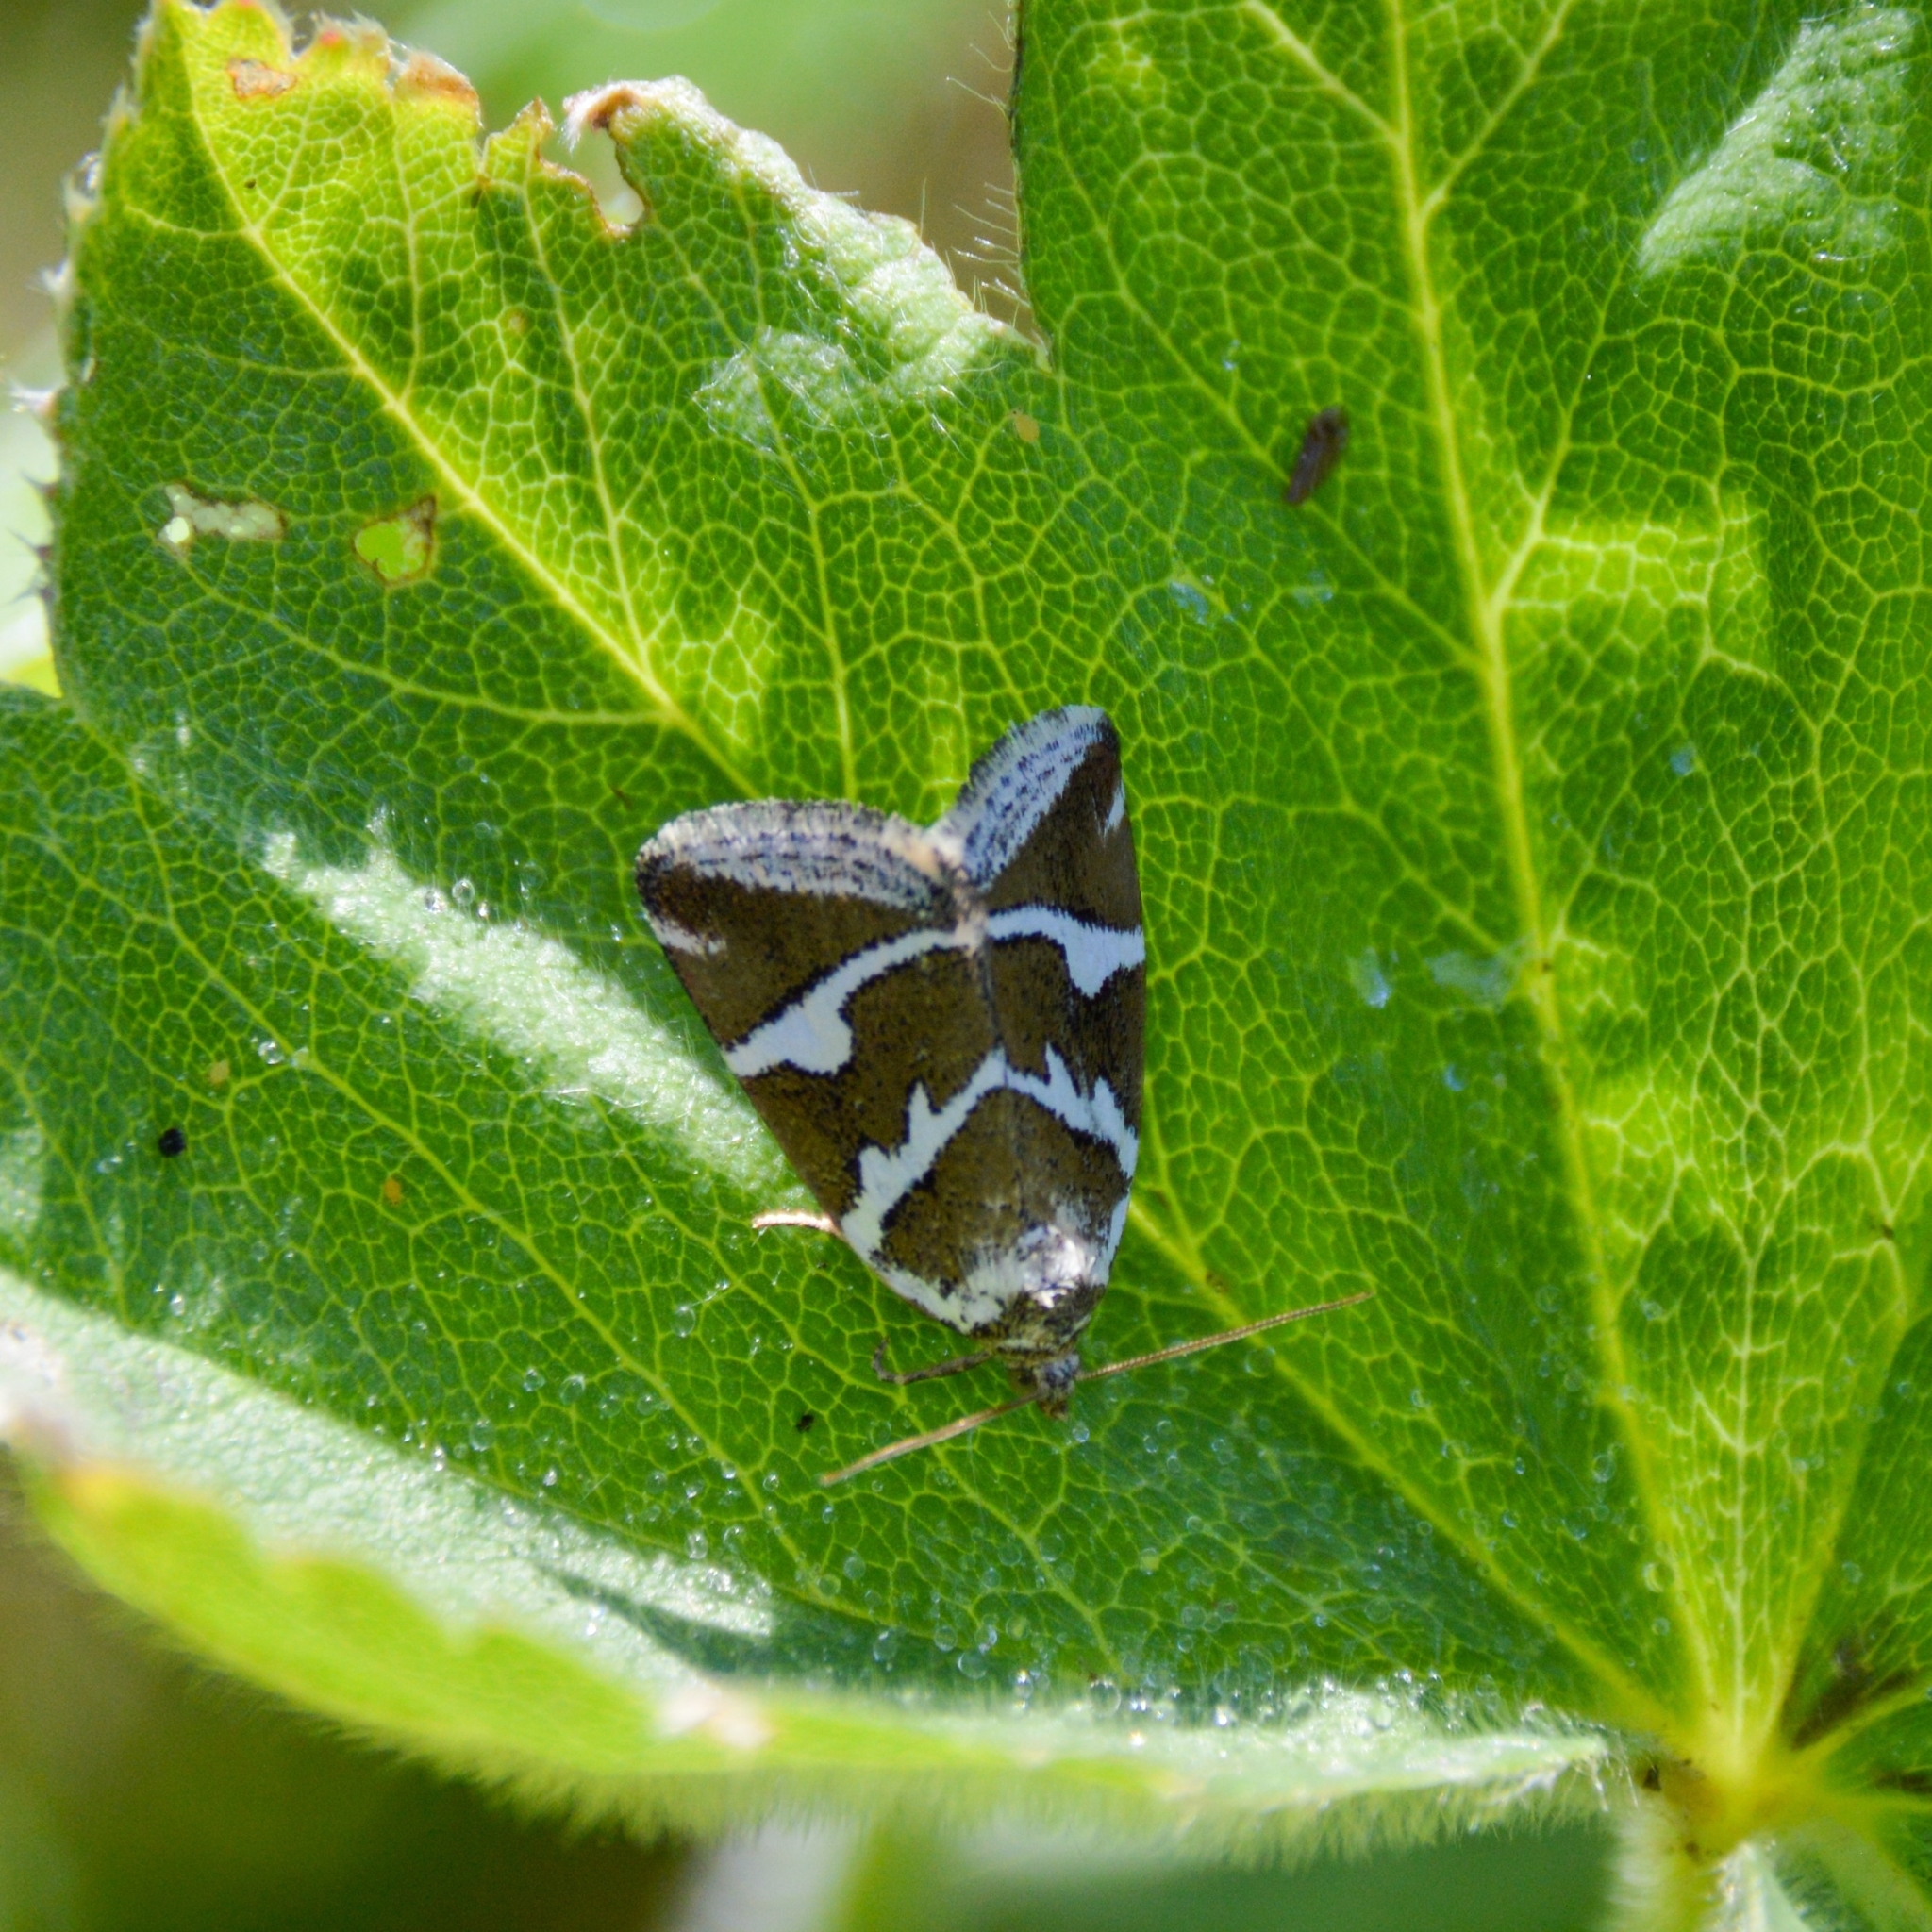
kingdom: Animalia
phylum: Arthropoda
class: Insecta
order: Lepidoptera
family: Noctuidae
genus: Deltote
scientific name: Deltote bankiana
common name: Silver barred
